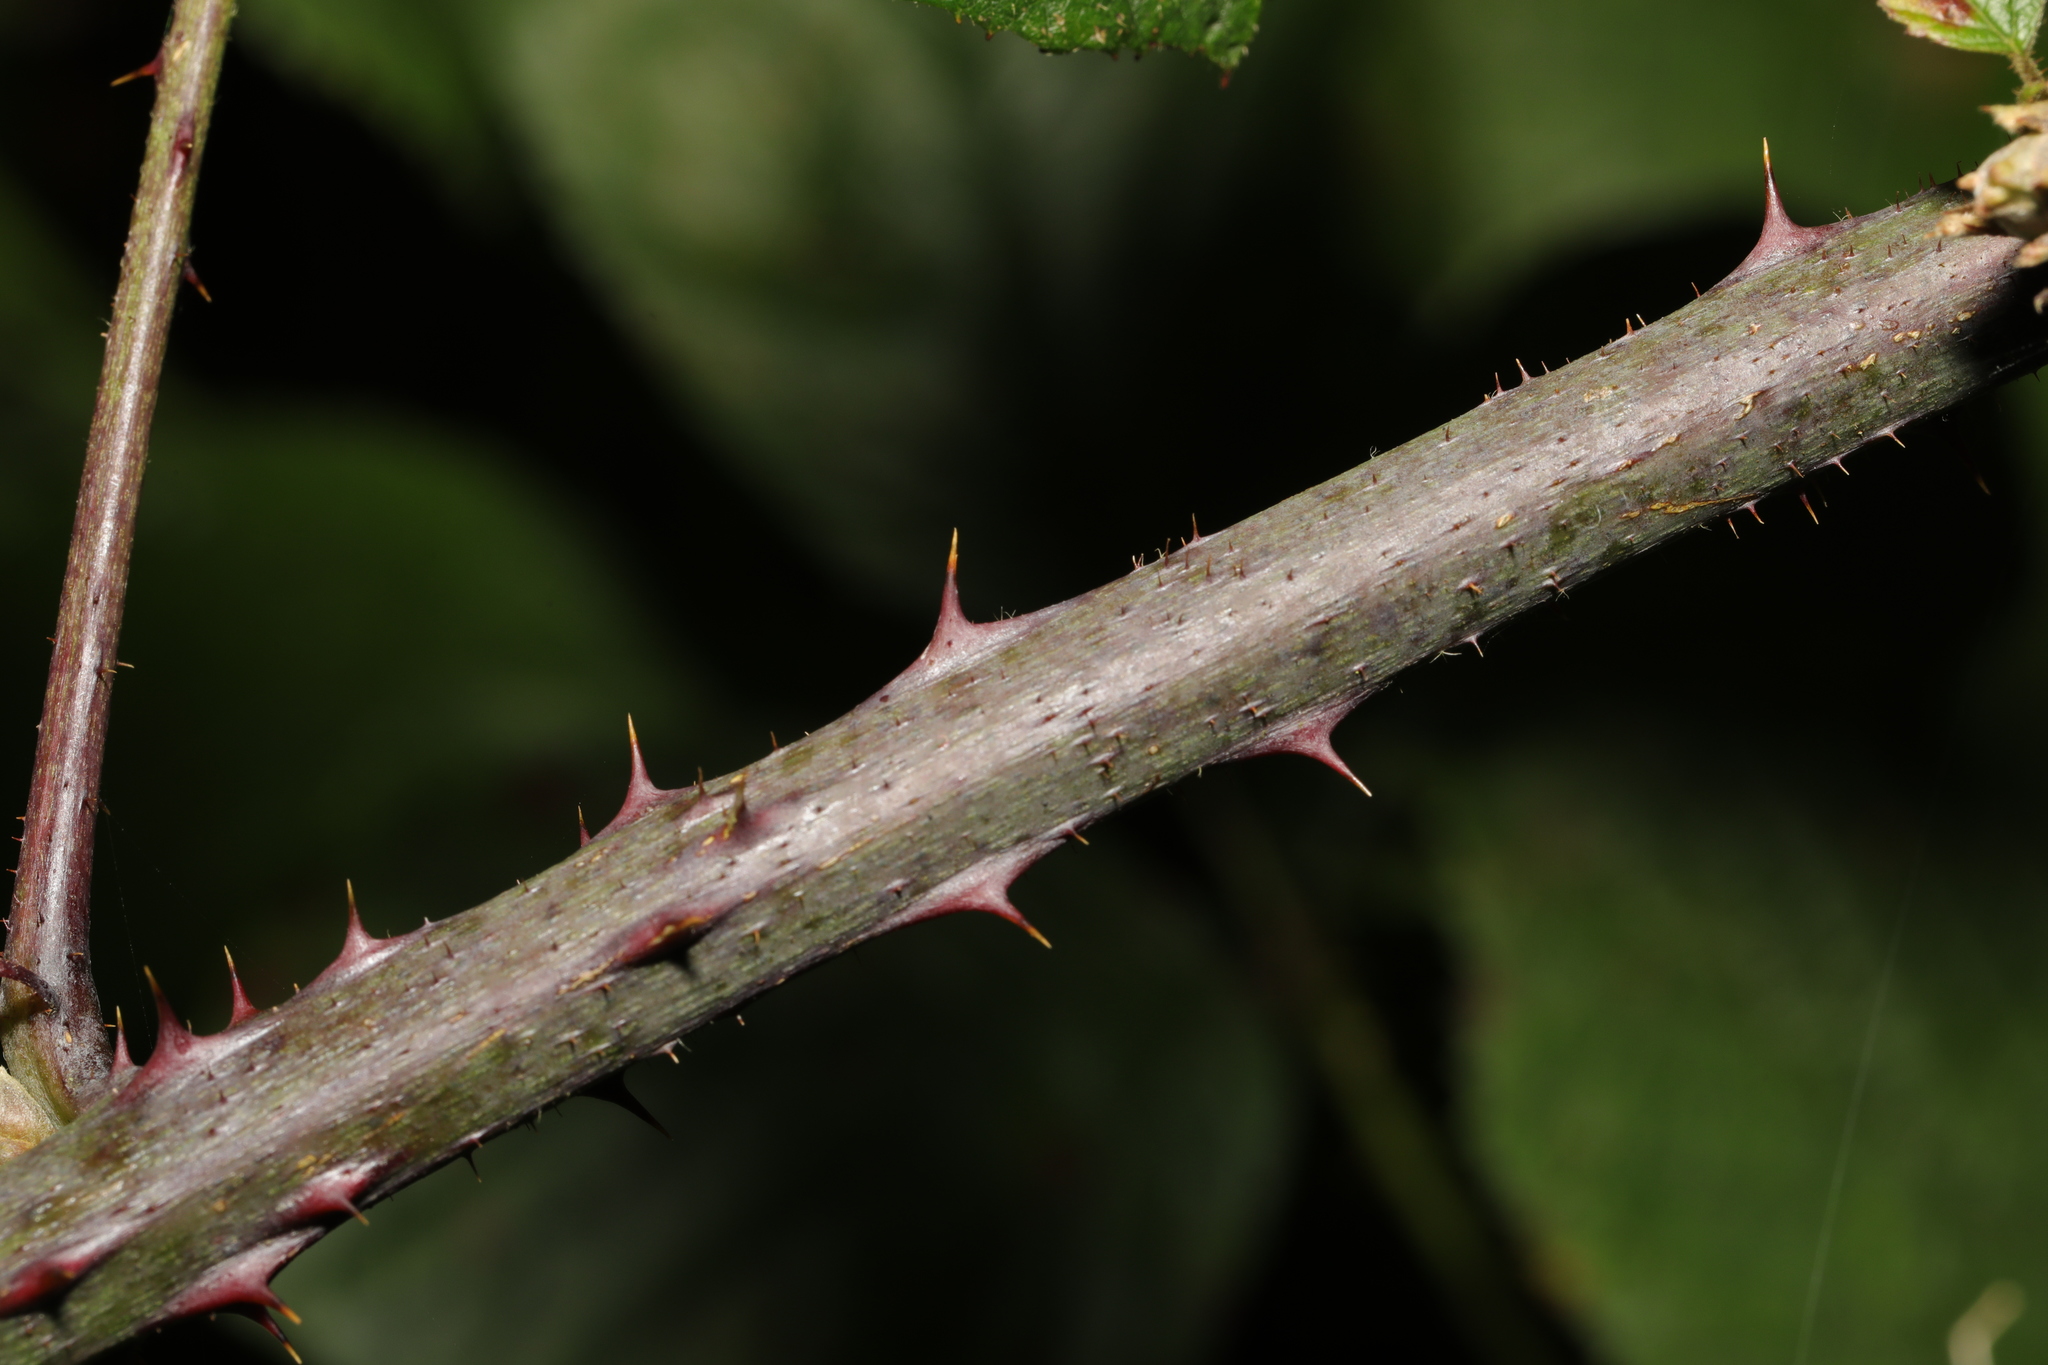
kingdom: Plantae
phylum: Tracheophyta
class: Magnoliopsida
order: Rosales
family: Rosaceae
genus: Rubus
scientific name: Rubus newbouldii
